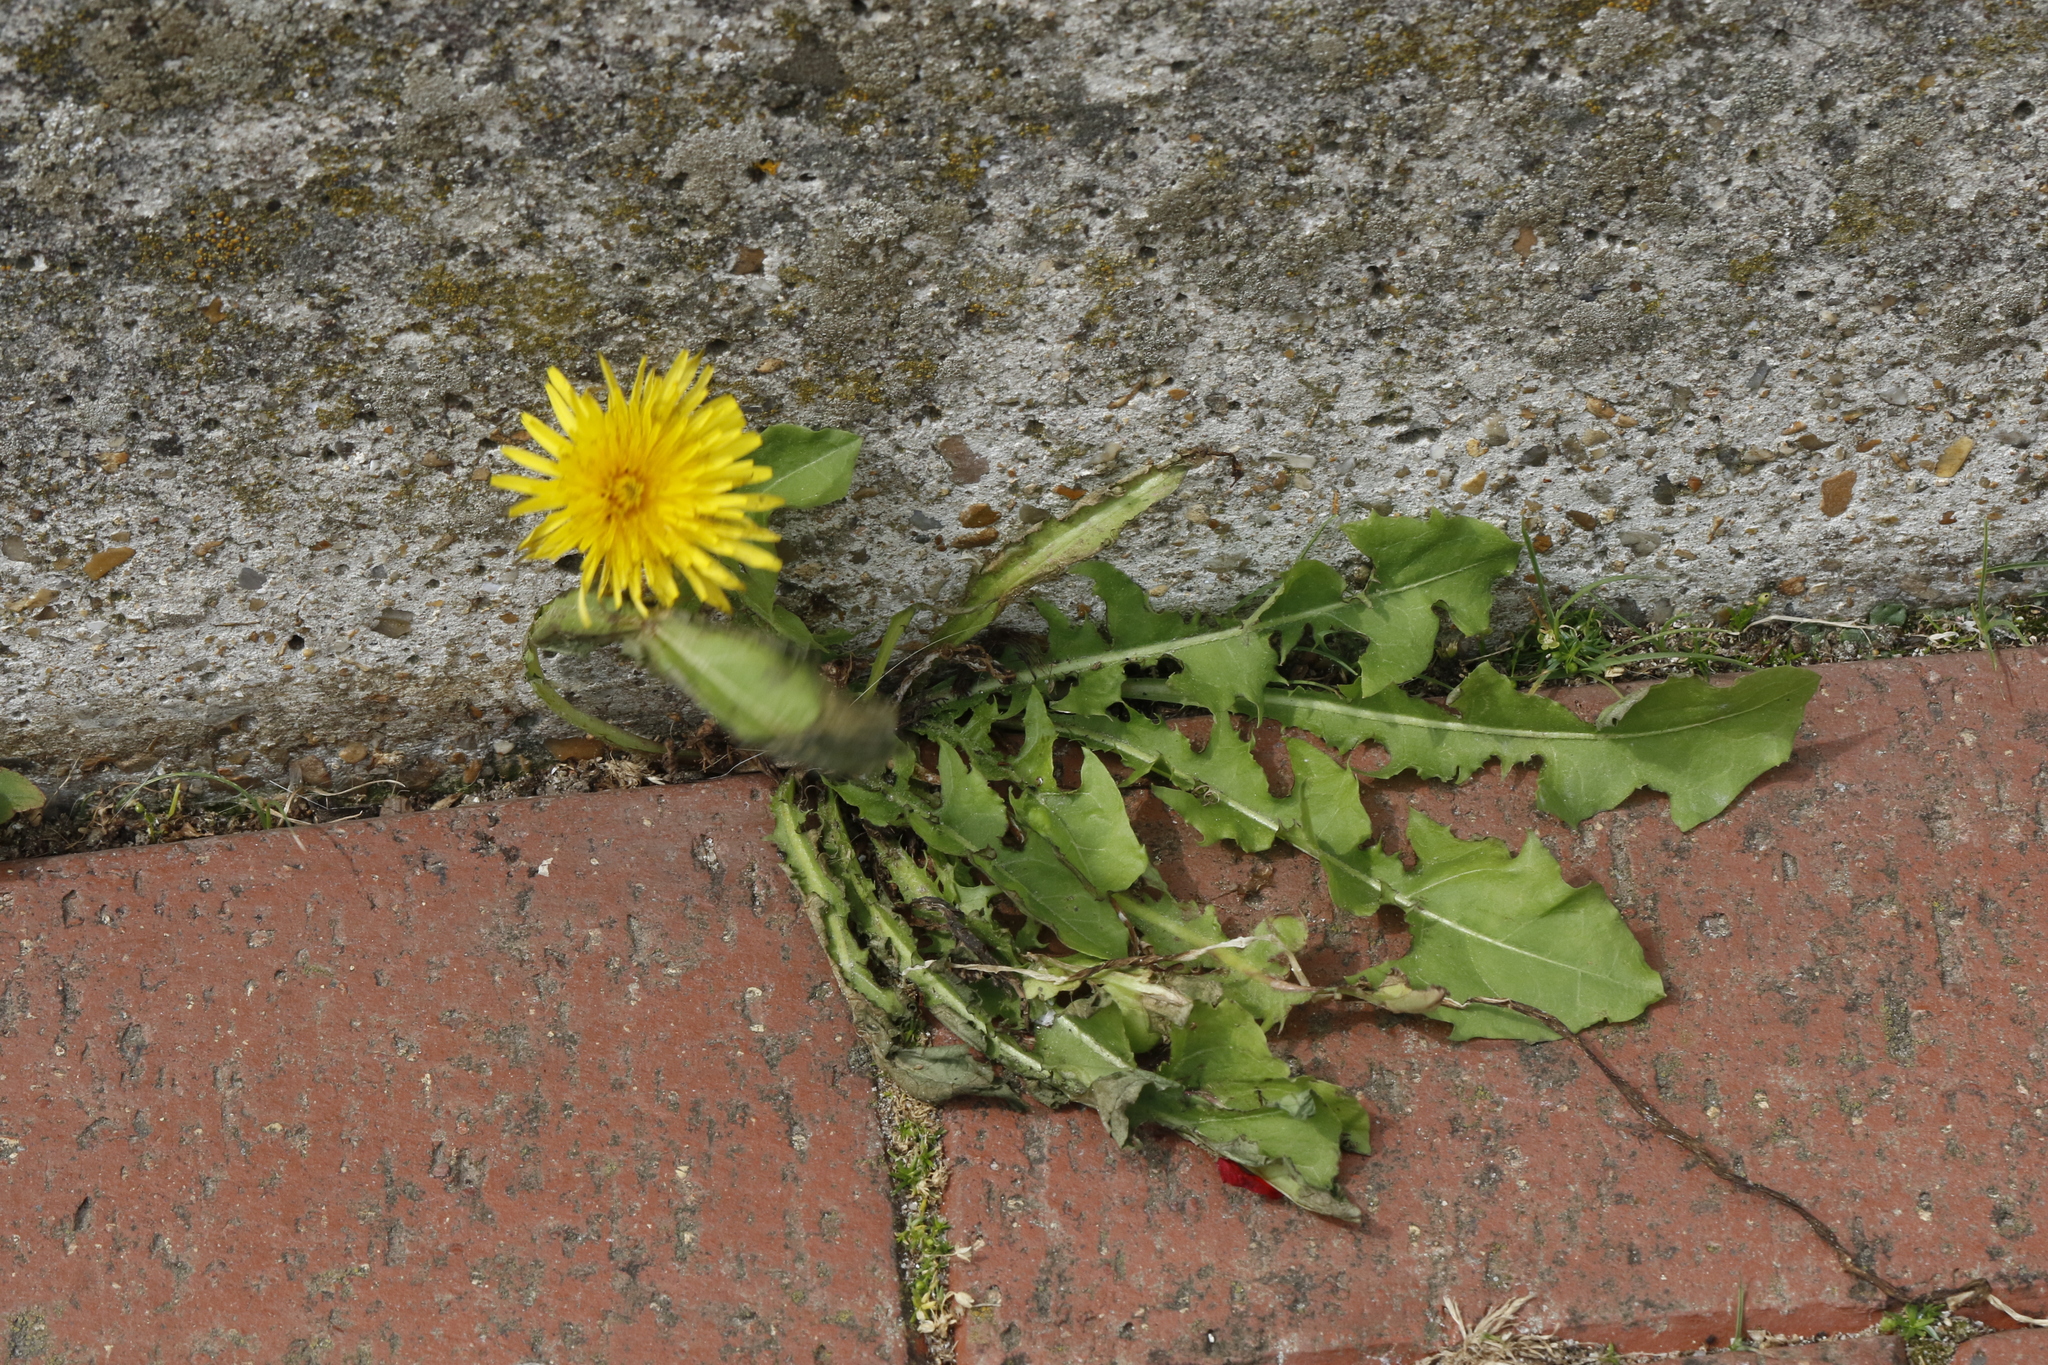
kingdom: Plantae
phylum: Tracheophyta
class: Magnoliopsida
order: Asterales
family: Asteraceae
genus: Taraxacum
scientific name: Taraxacum officinale
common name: Common dandelion
